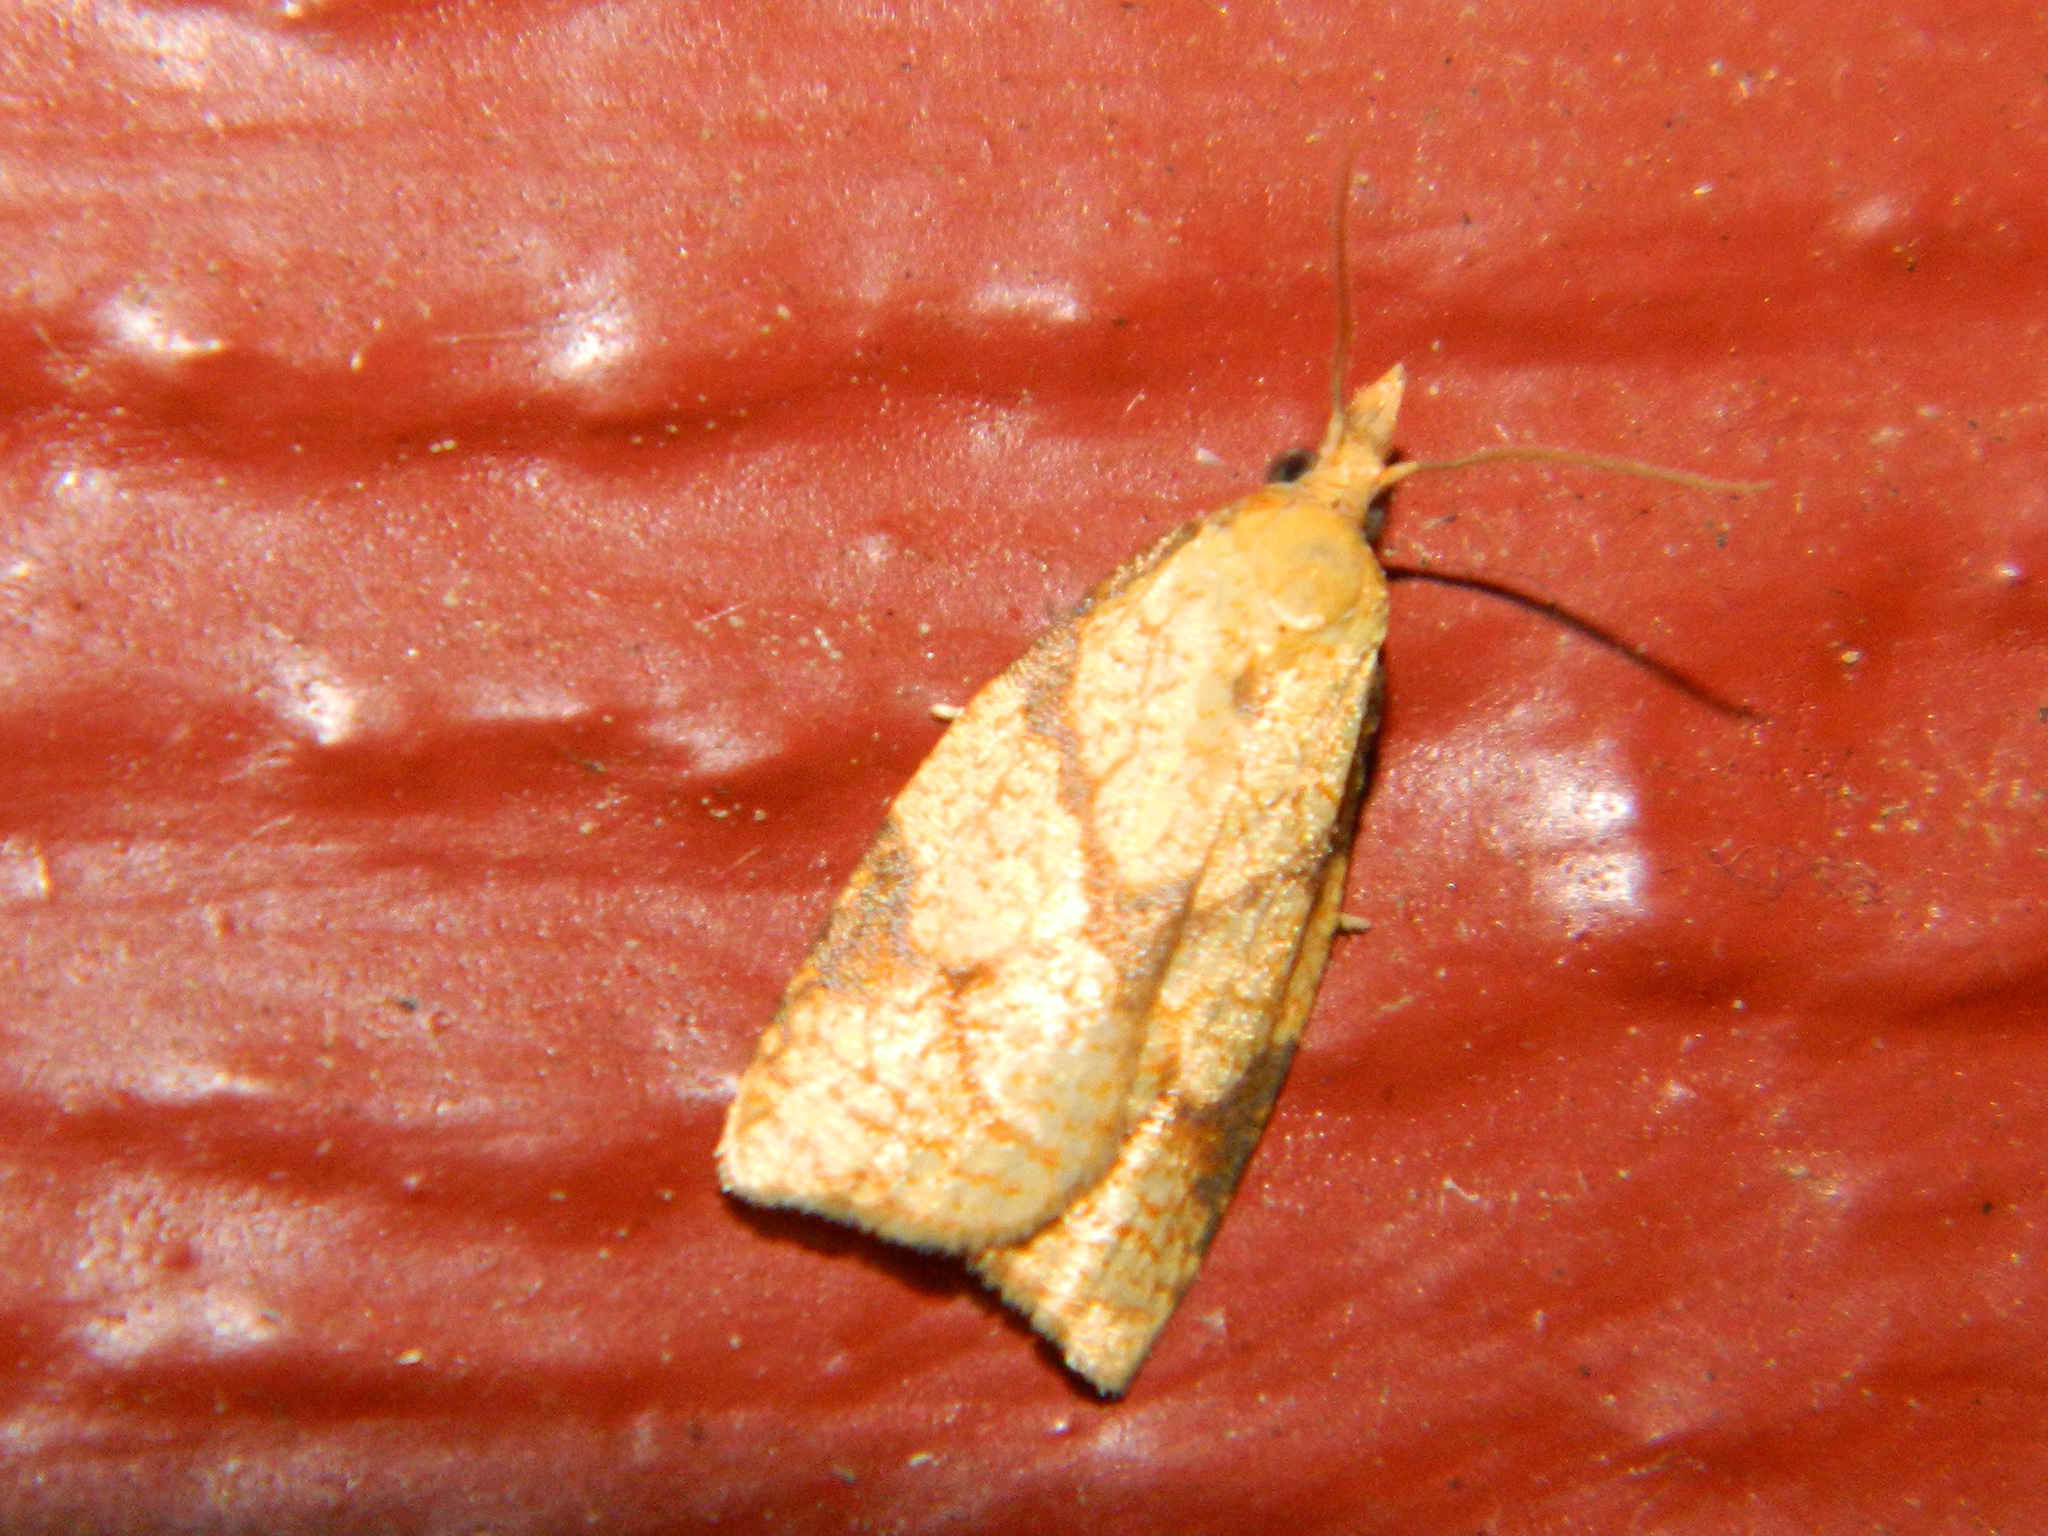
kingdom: Animalia
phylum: Arthropoda
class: Insecta
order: Lepidoptera
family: Tortricidae
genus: Cenopis
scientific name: Cenopis reticulatana
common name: Reticulated fruitworm moth
